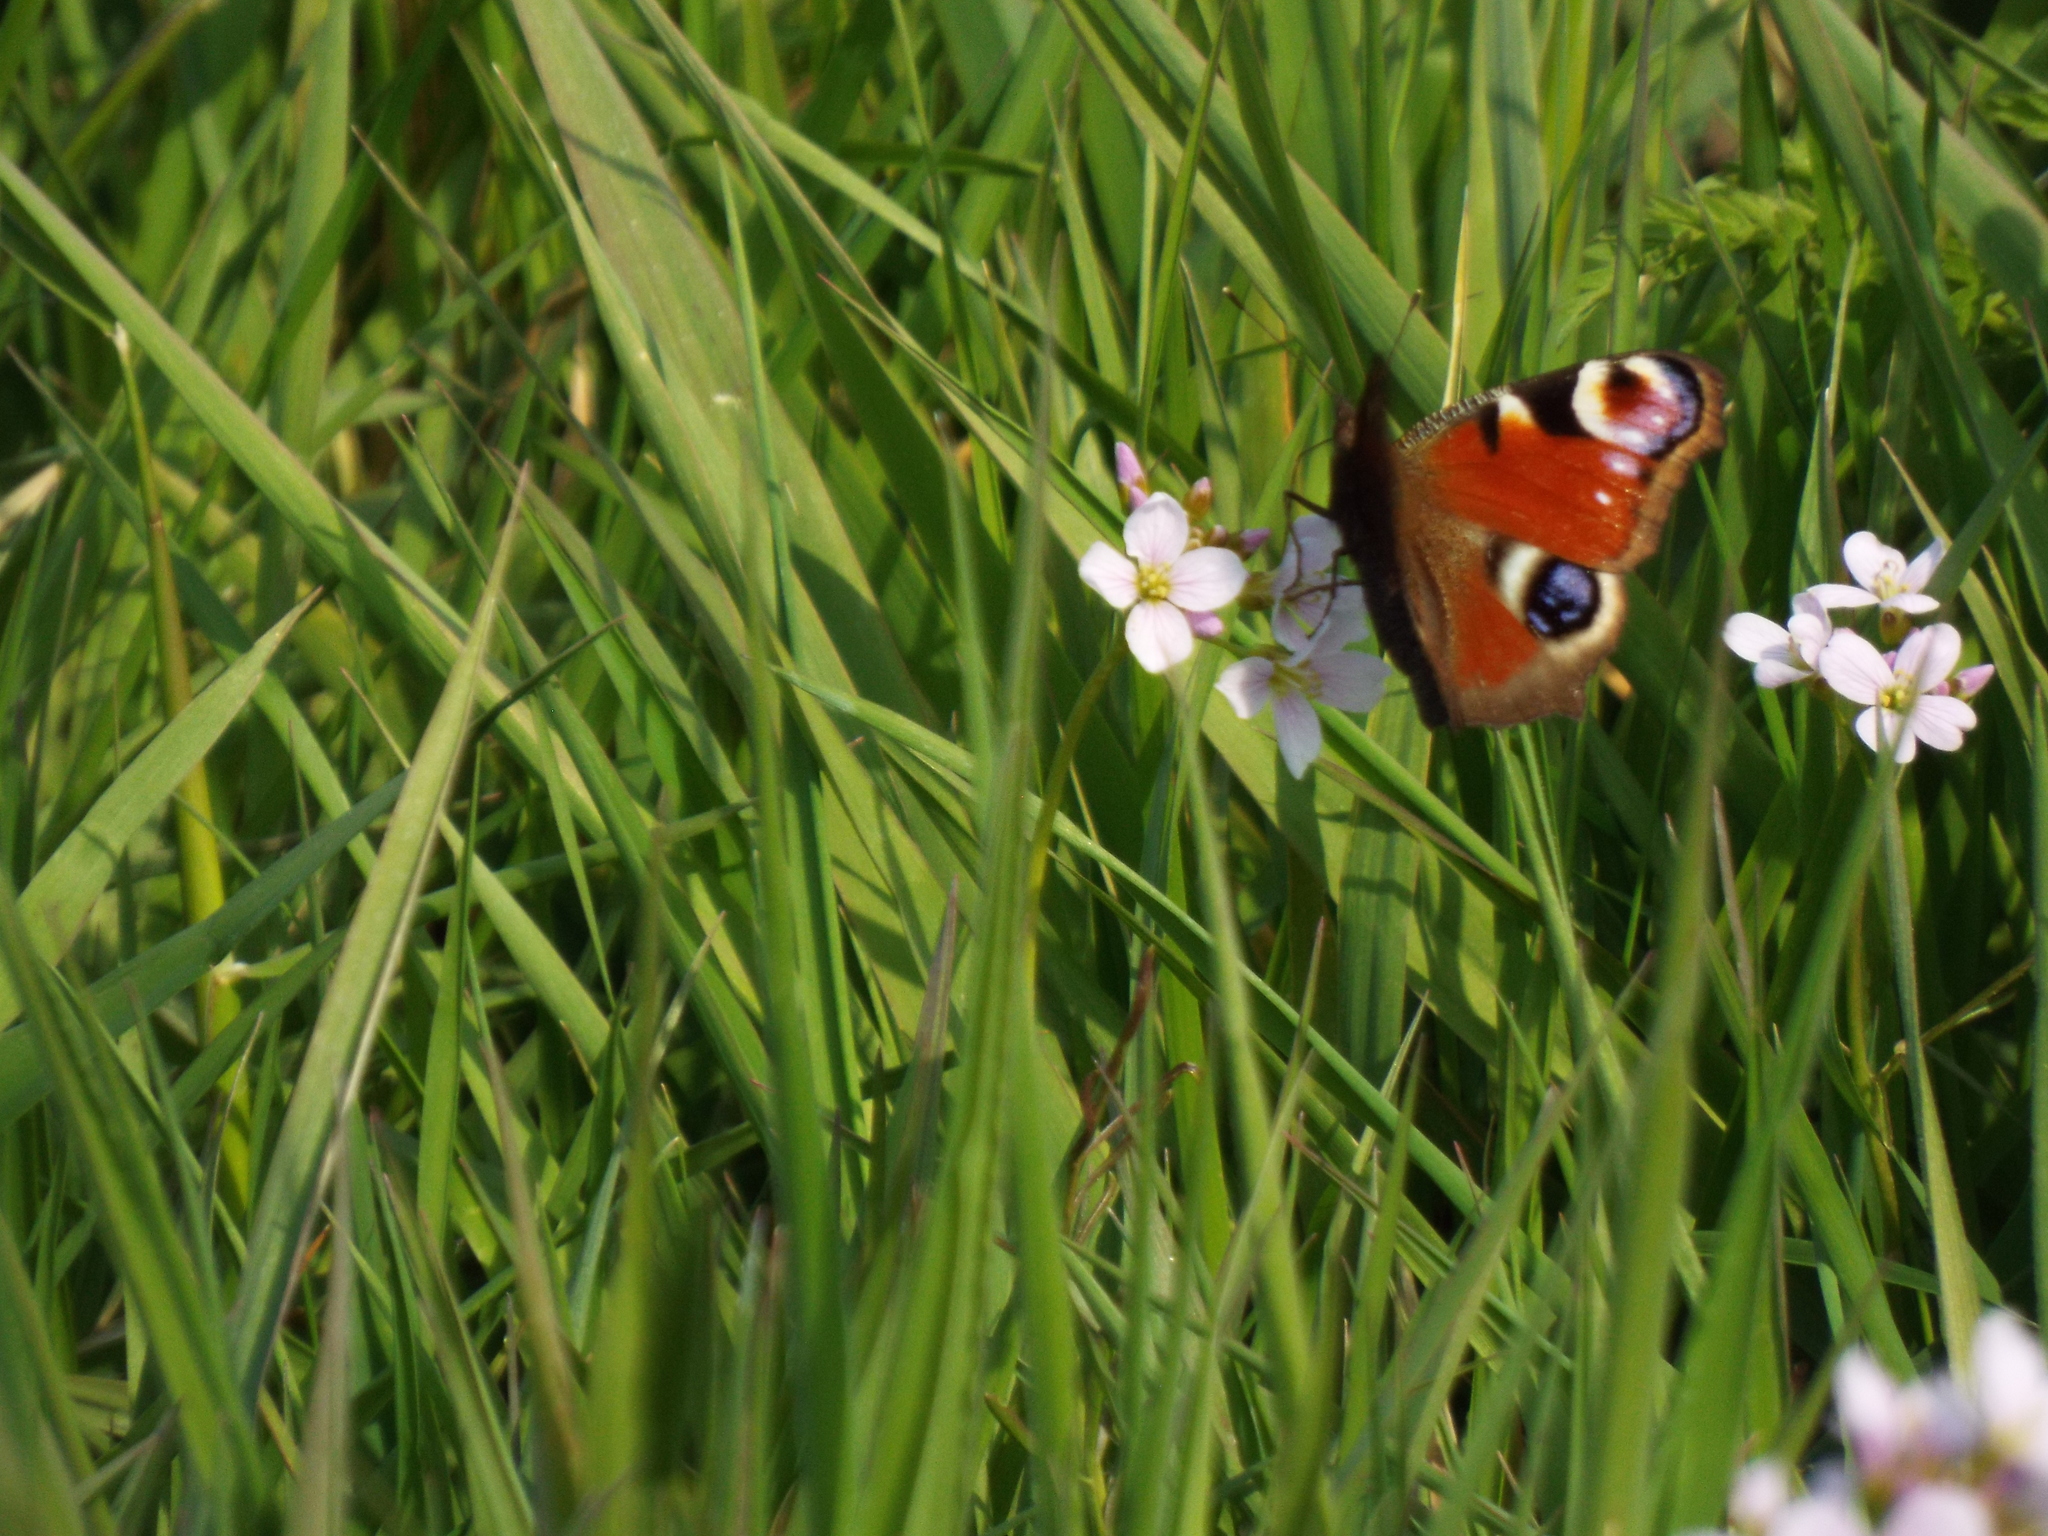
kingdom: Animalia
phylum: Arthropoda
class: Insecta
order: Lepidoptera
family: Nymphalidae
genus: Aglais
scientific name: Aglais io
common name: Peacock
